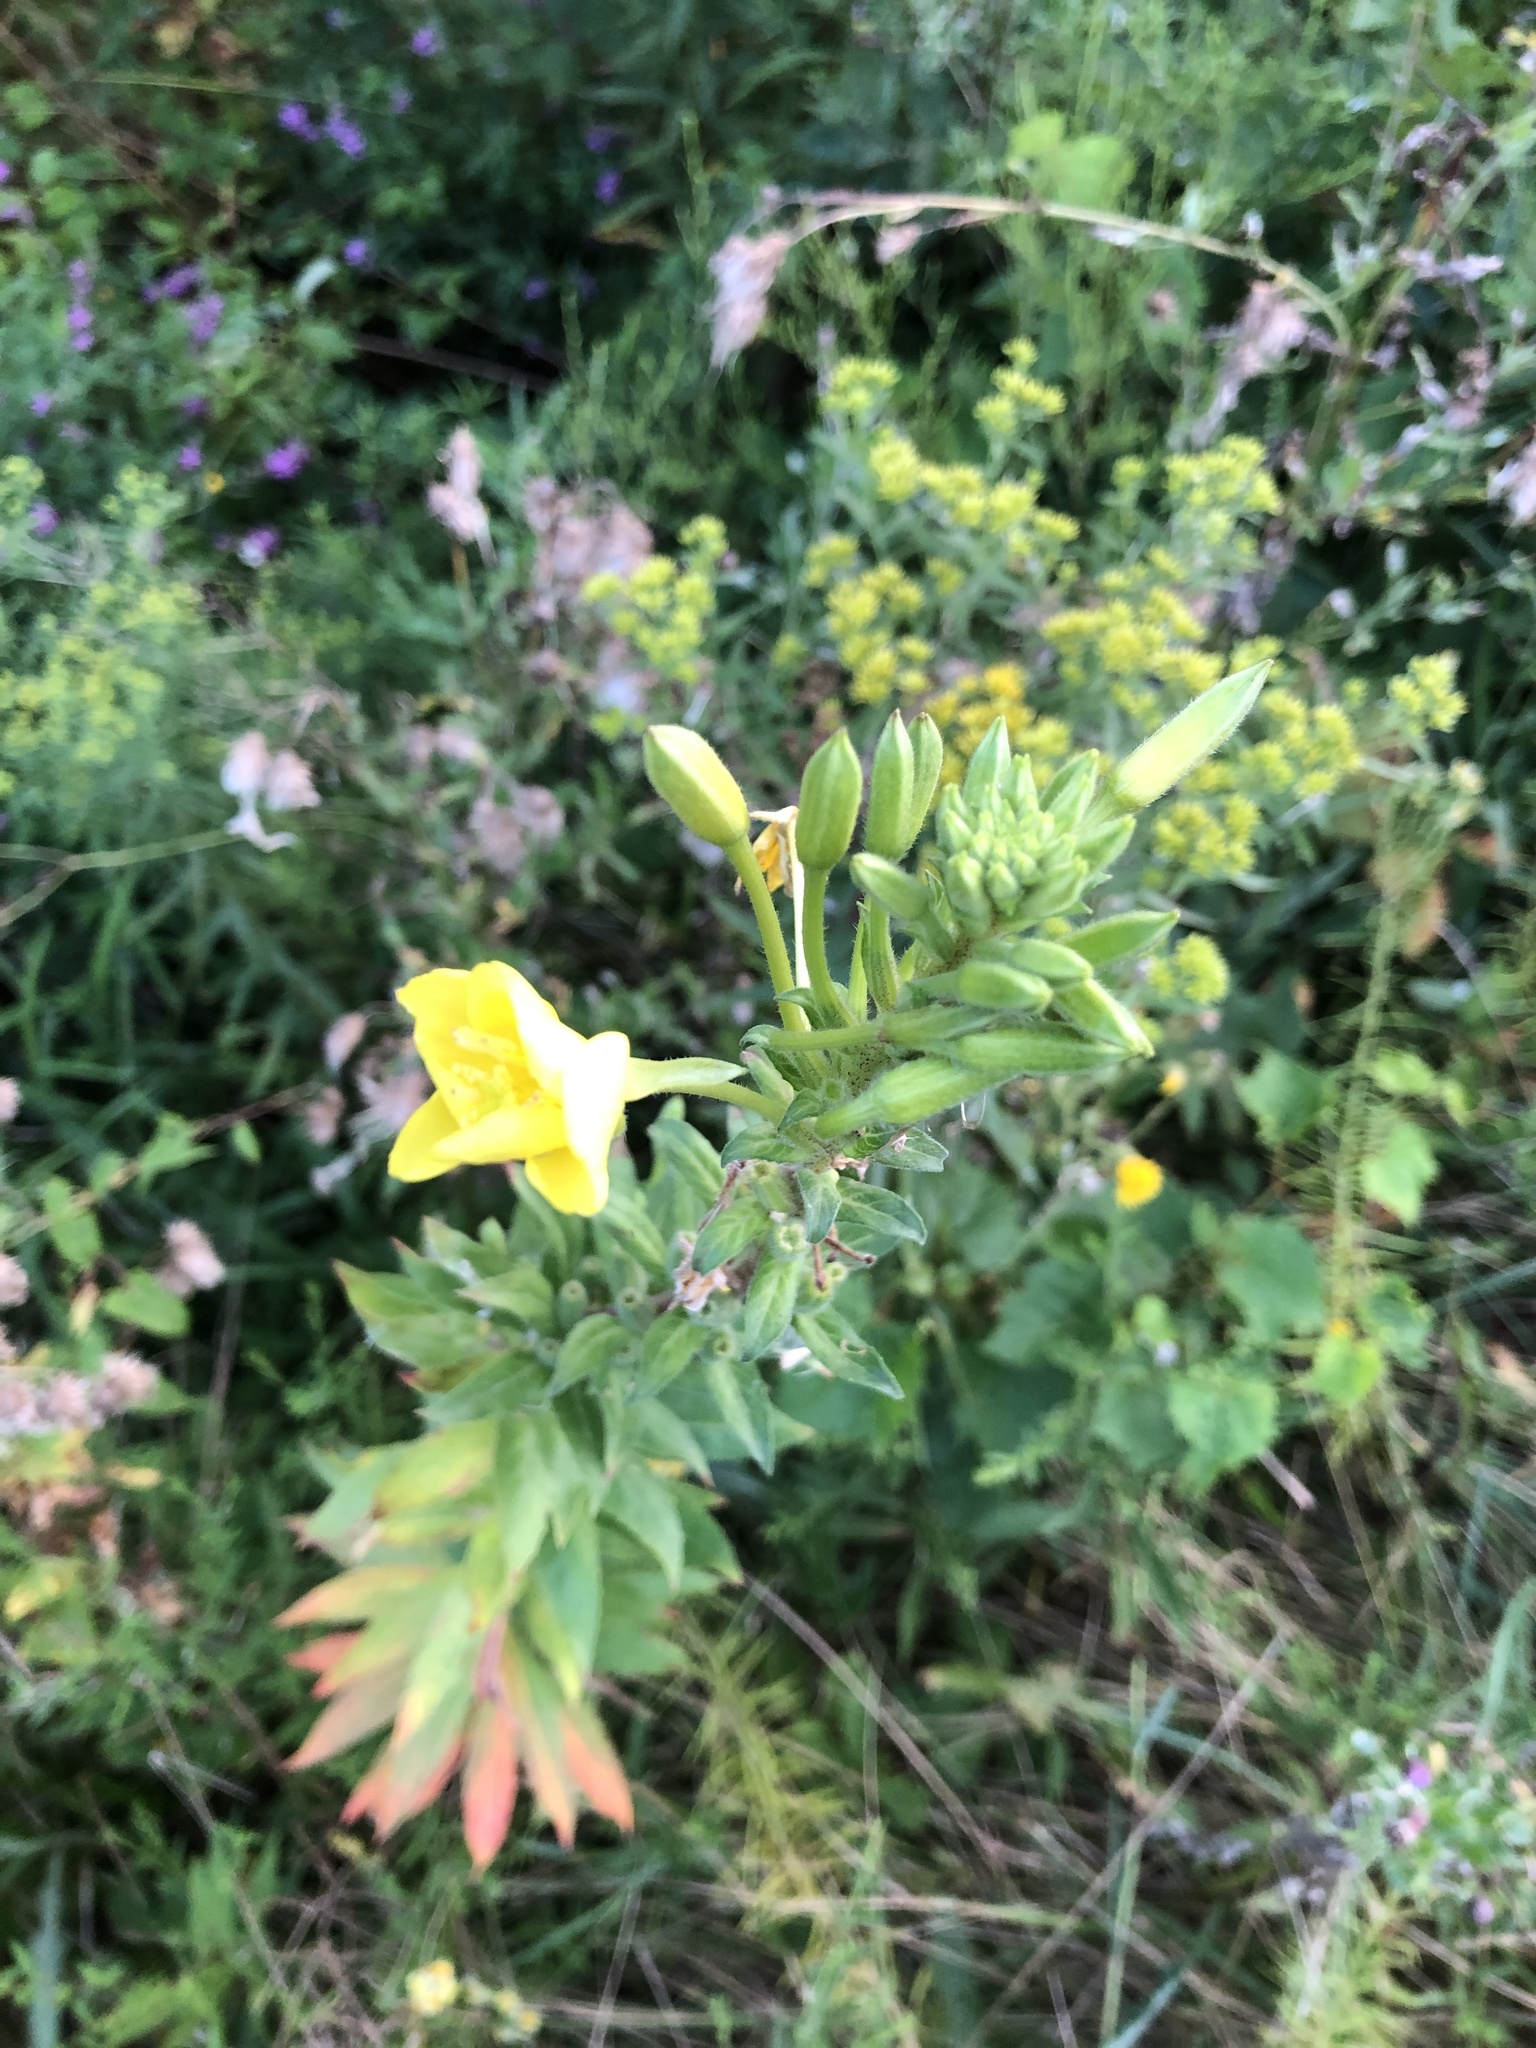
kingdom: Plantae
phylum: Tracheophyta
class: Magnoliopsida
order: Myrtales
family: Onagraceae
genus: Oenothera
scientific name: Oenothera parviflora
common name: Least evening-primrose
